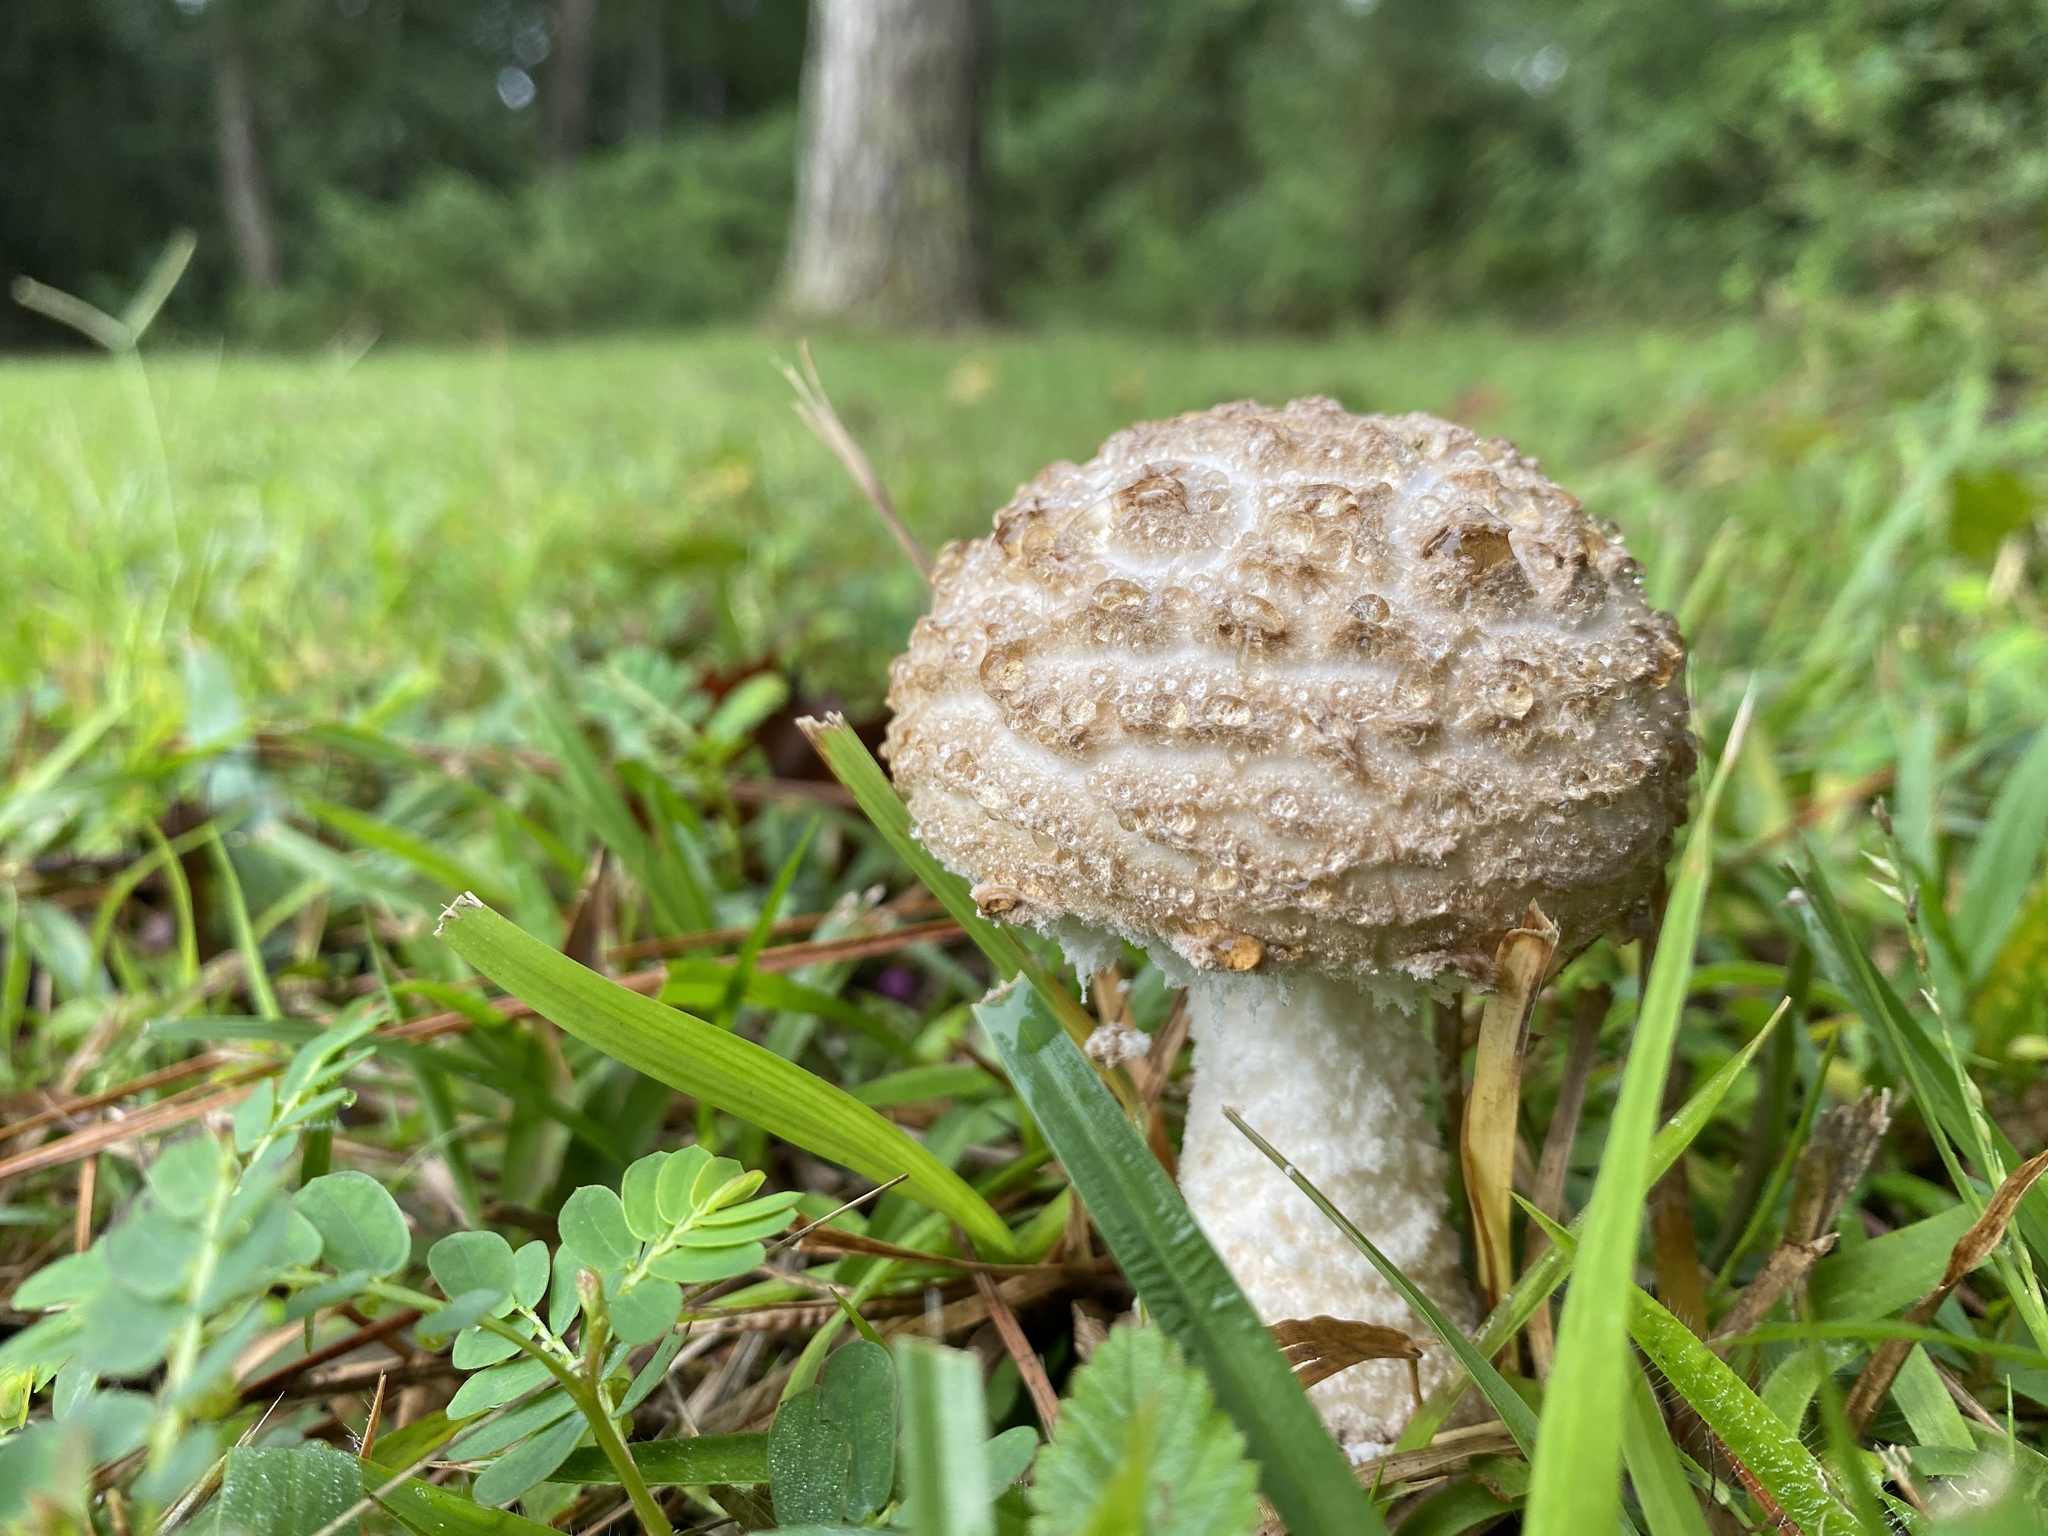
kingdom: Fungi
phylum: Basidiomycota
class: Agaricomycetes
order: Agaricales
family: Amanitaceae
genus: Aspidella
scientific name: Aspidella hesleri
